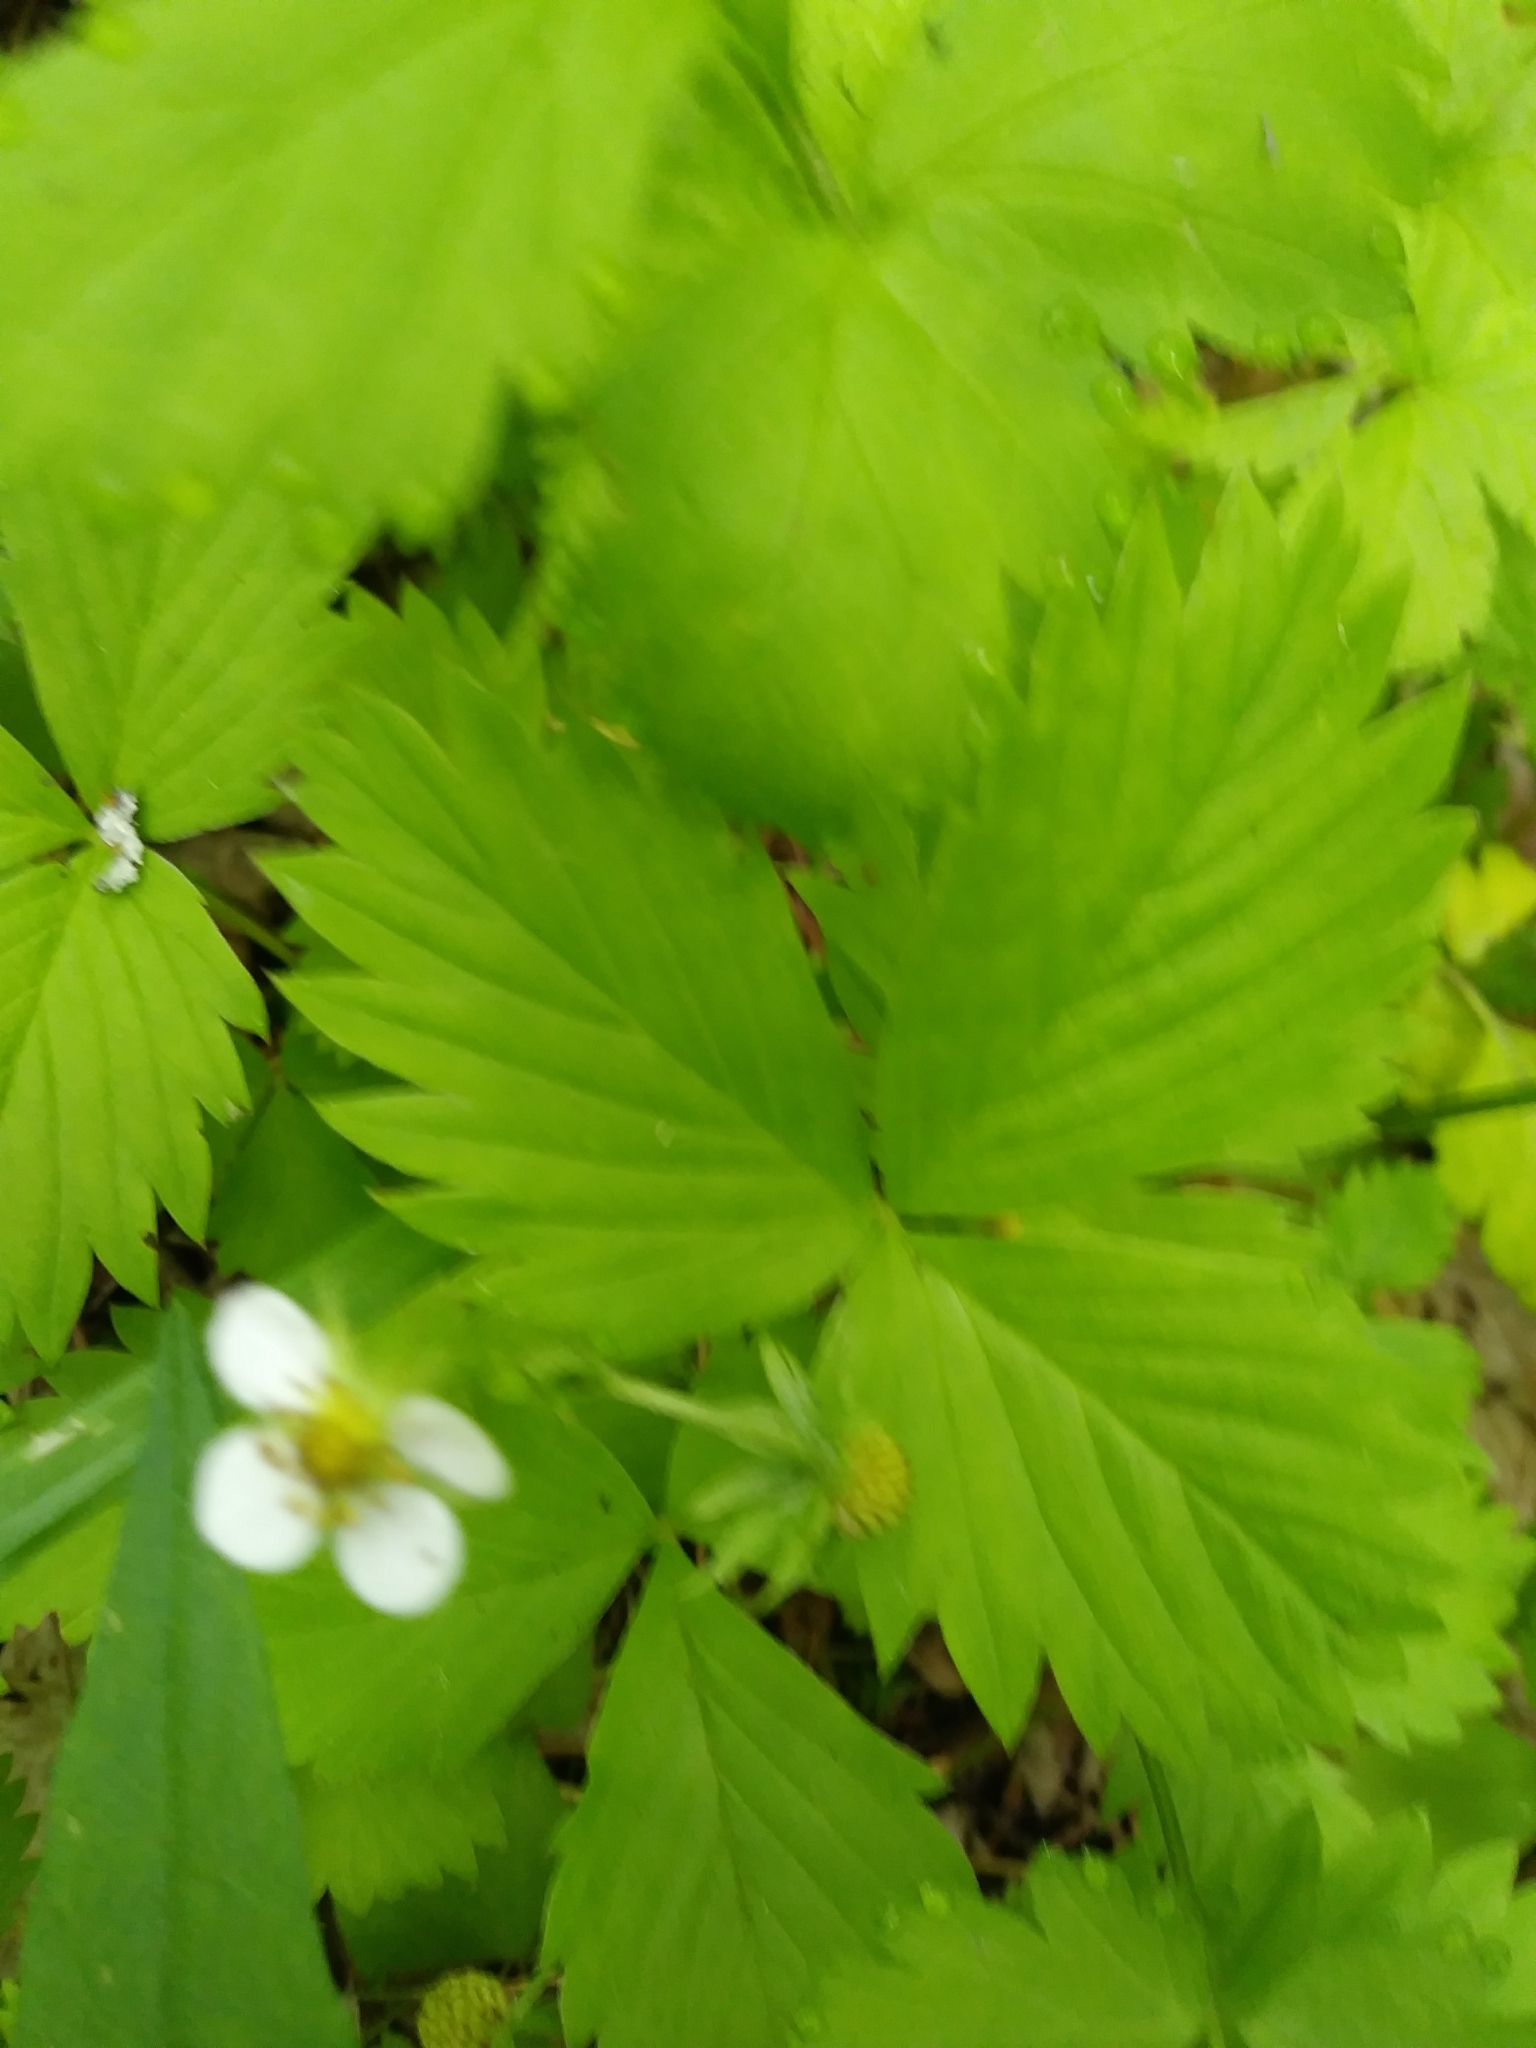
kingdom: Plantae
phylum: Tracheophyta
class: Magnoliopsida
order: Rosales
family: Rosaceae
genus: Fragaria
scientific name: Fragaria vesca
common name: Wild strawberry
